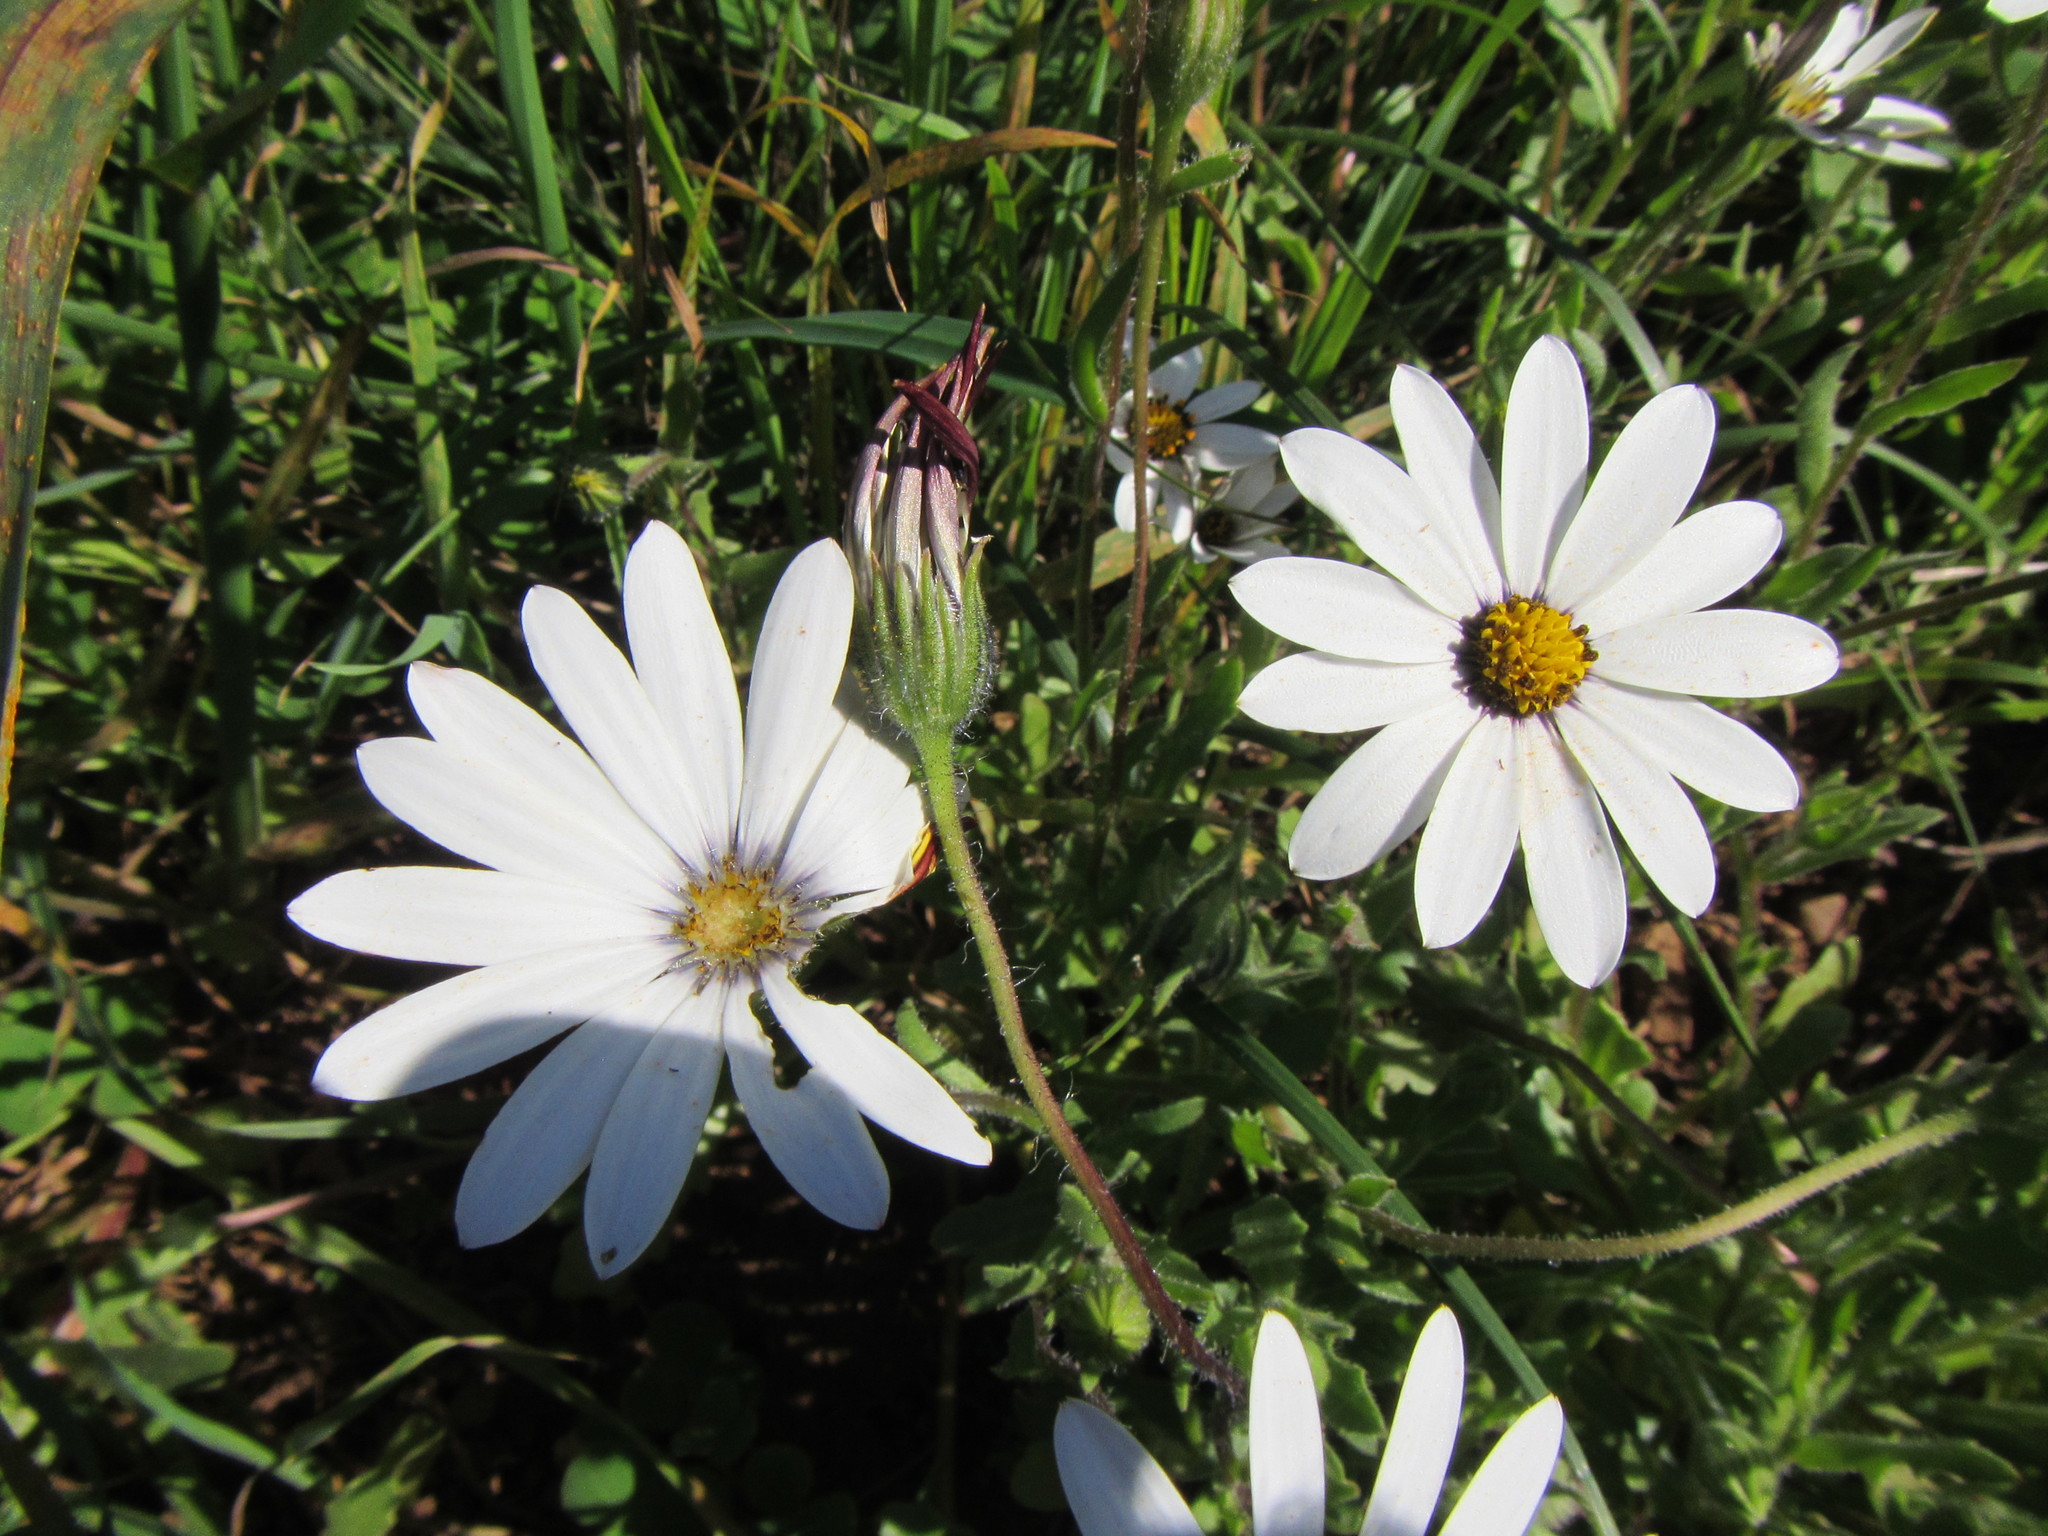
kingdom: Plantae
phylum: Tracheophyta
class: Magnoliopsida
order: Asterales
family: Asteraceae
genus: Dimorphotheca
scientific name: Dimorphotheca pluvialis
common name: Weather prophet
